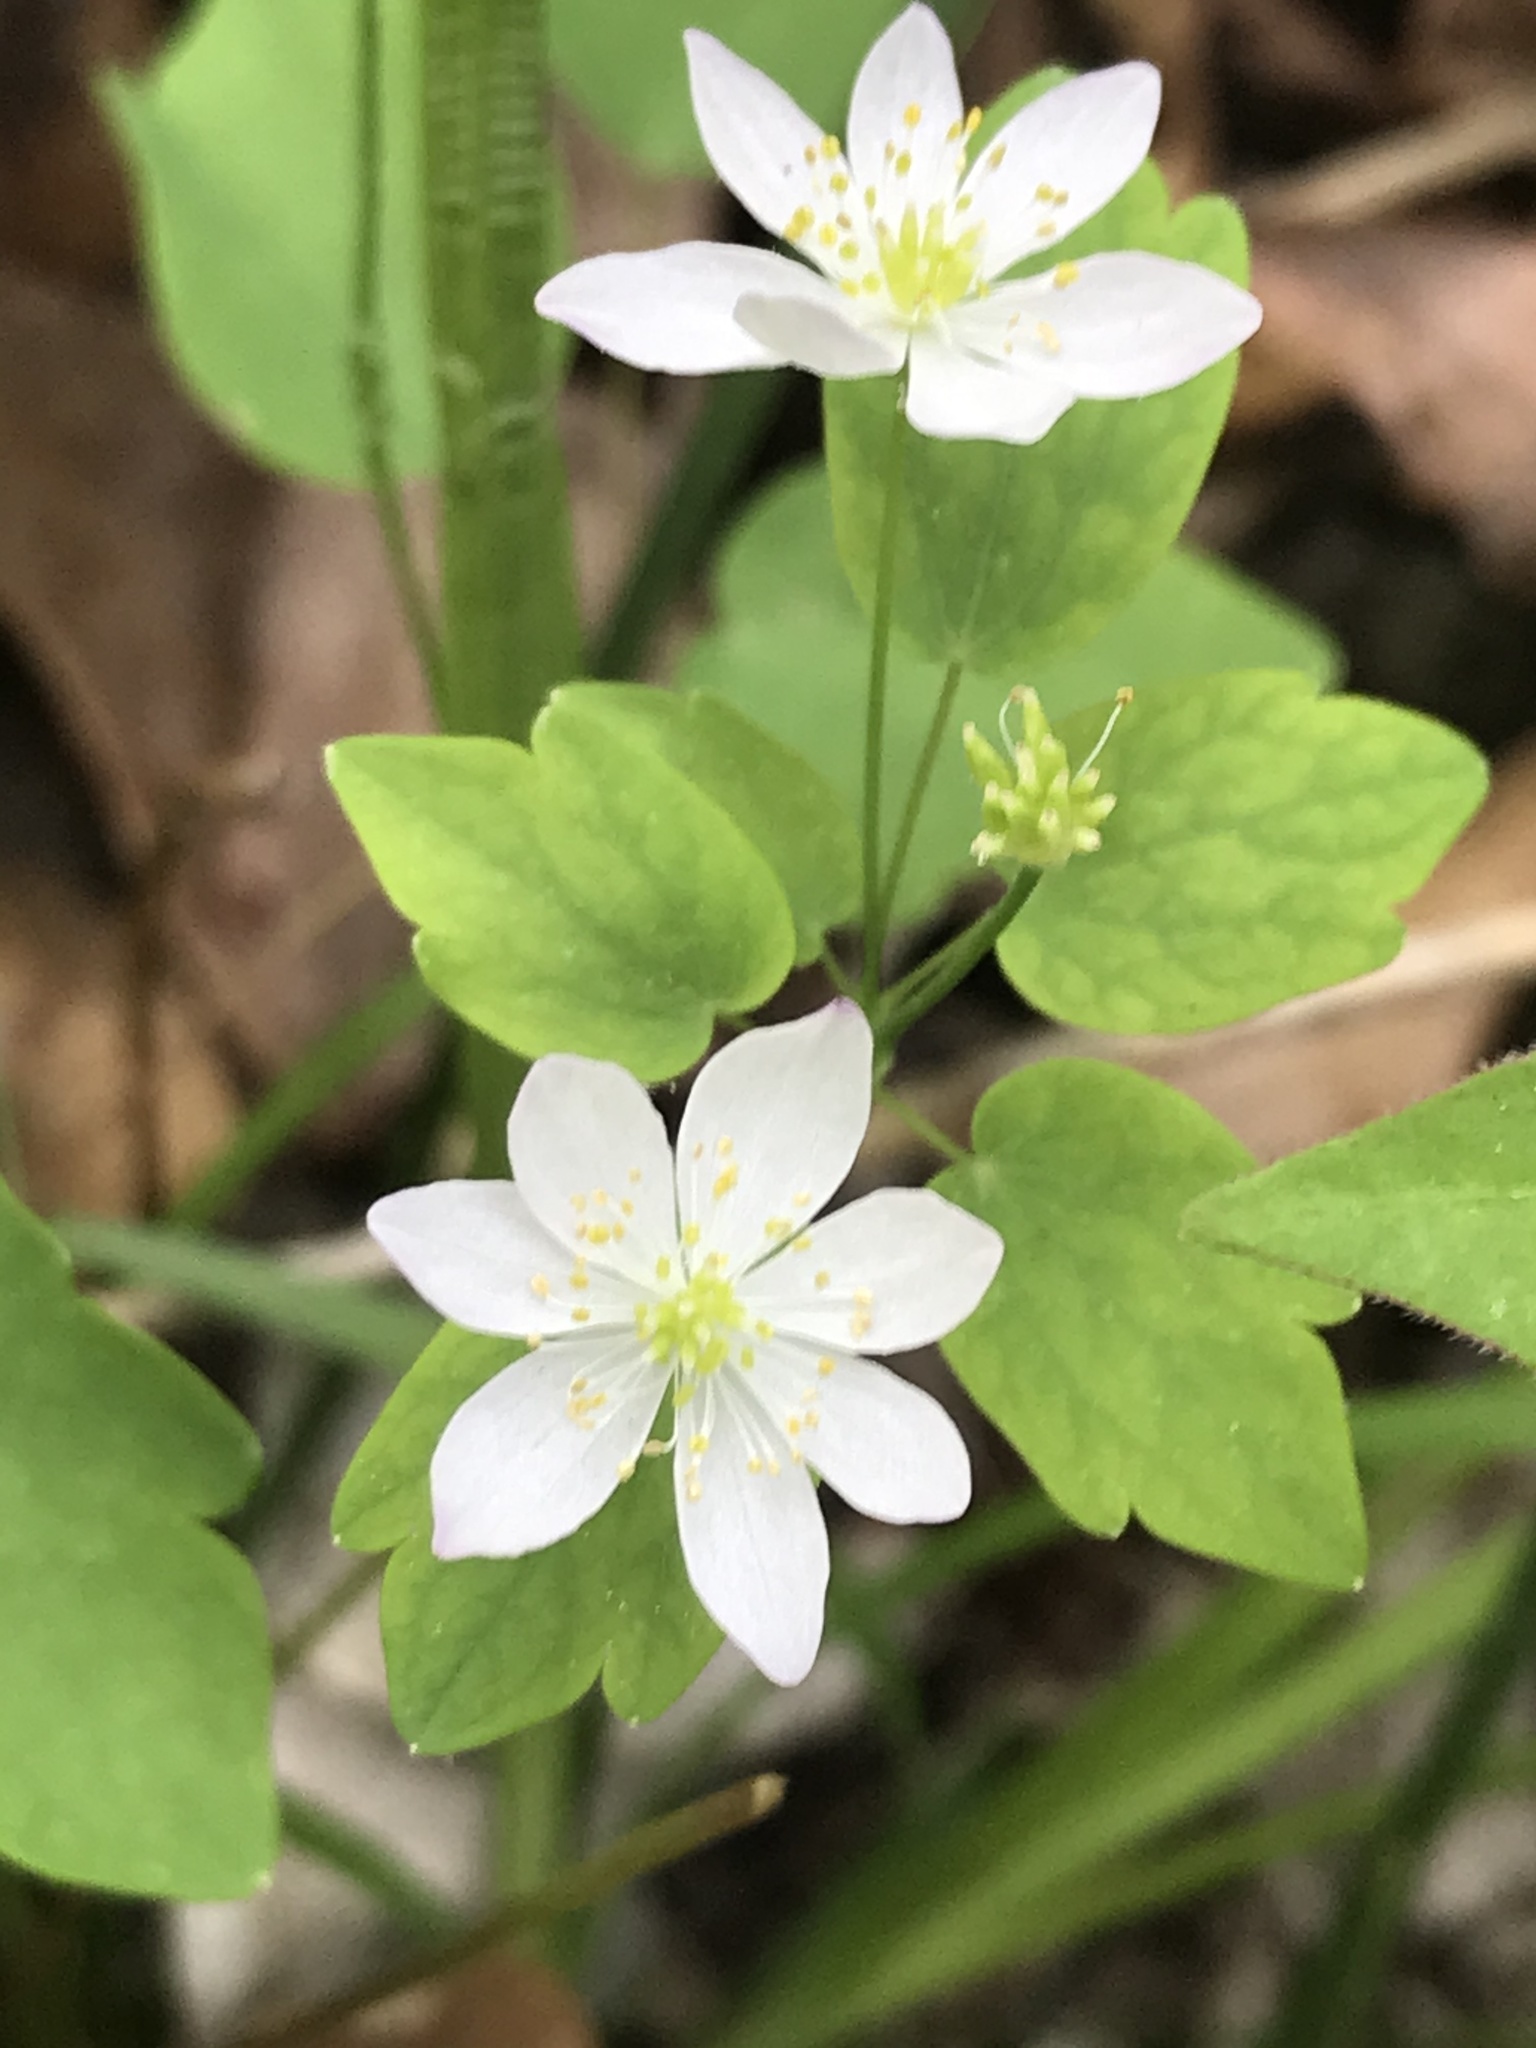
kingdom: Plantae
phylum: Tracheophyta
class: Magnoliopsida
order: Ranunculales
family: Ranunculaceae
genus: Thalictrum
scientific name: Thalictrum thalictroides
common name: Rue-anemone
